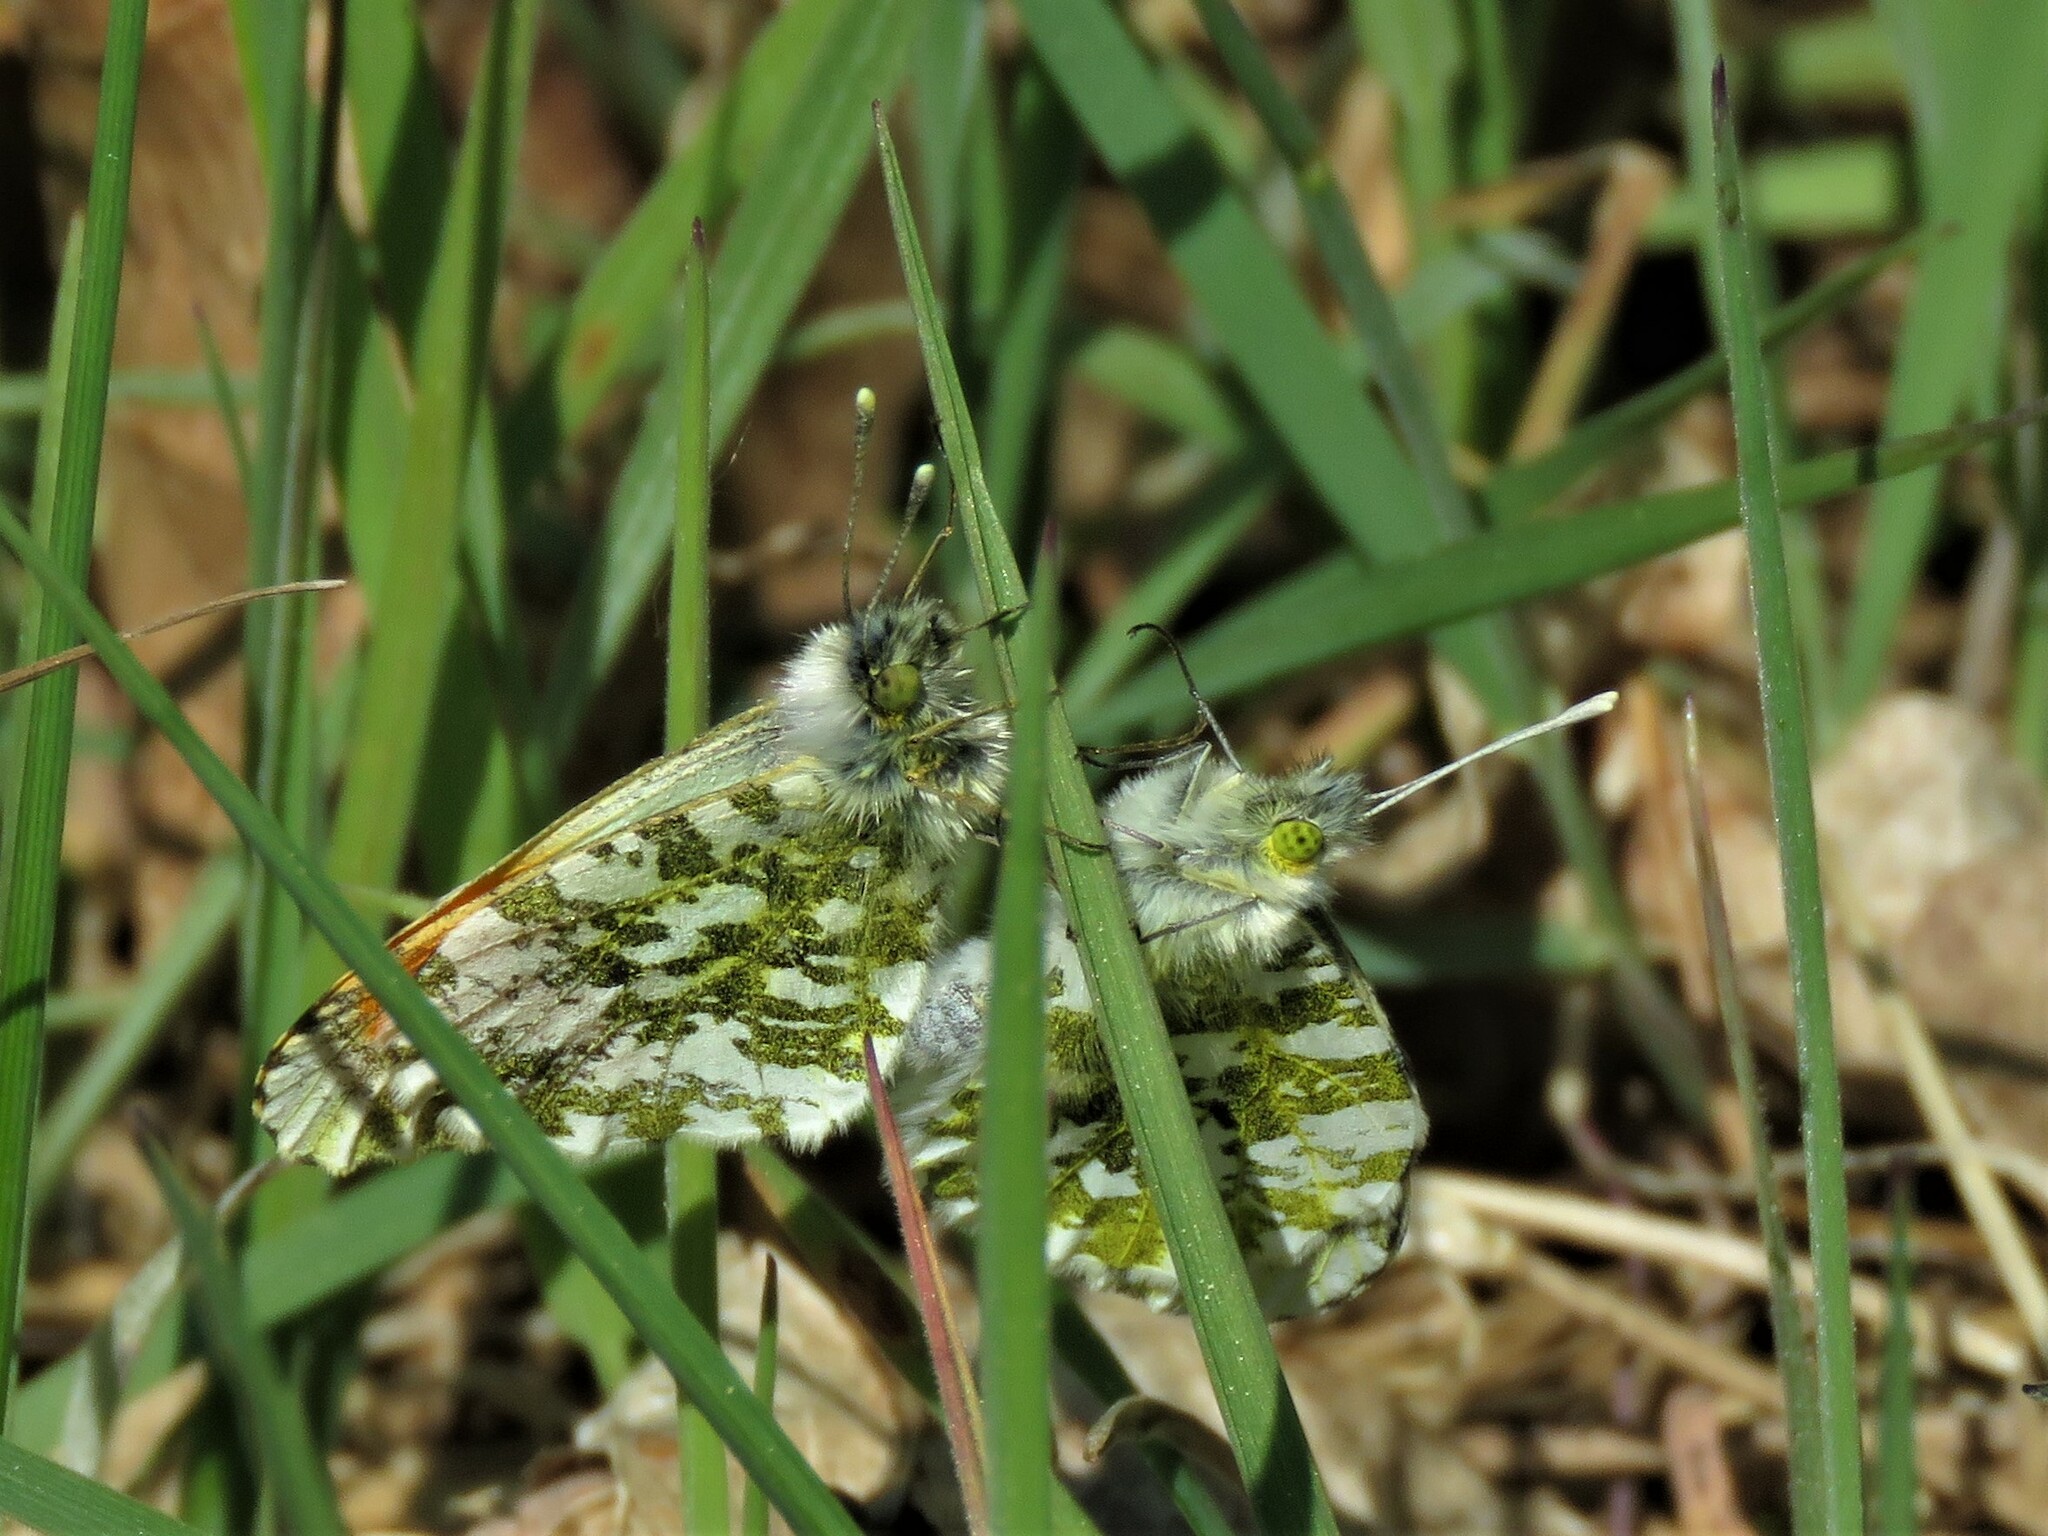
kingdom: Animalia
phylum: Arthropoda
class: Insecta
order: Lepidoptera
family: Pieridae
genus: Anthocharis
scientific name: Anthocharis cardamines
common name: Orange-tip
